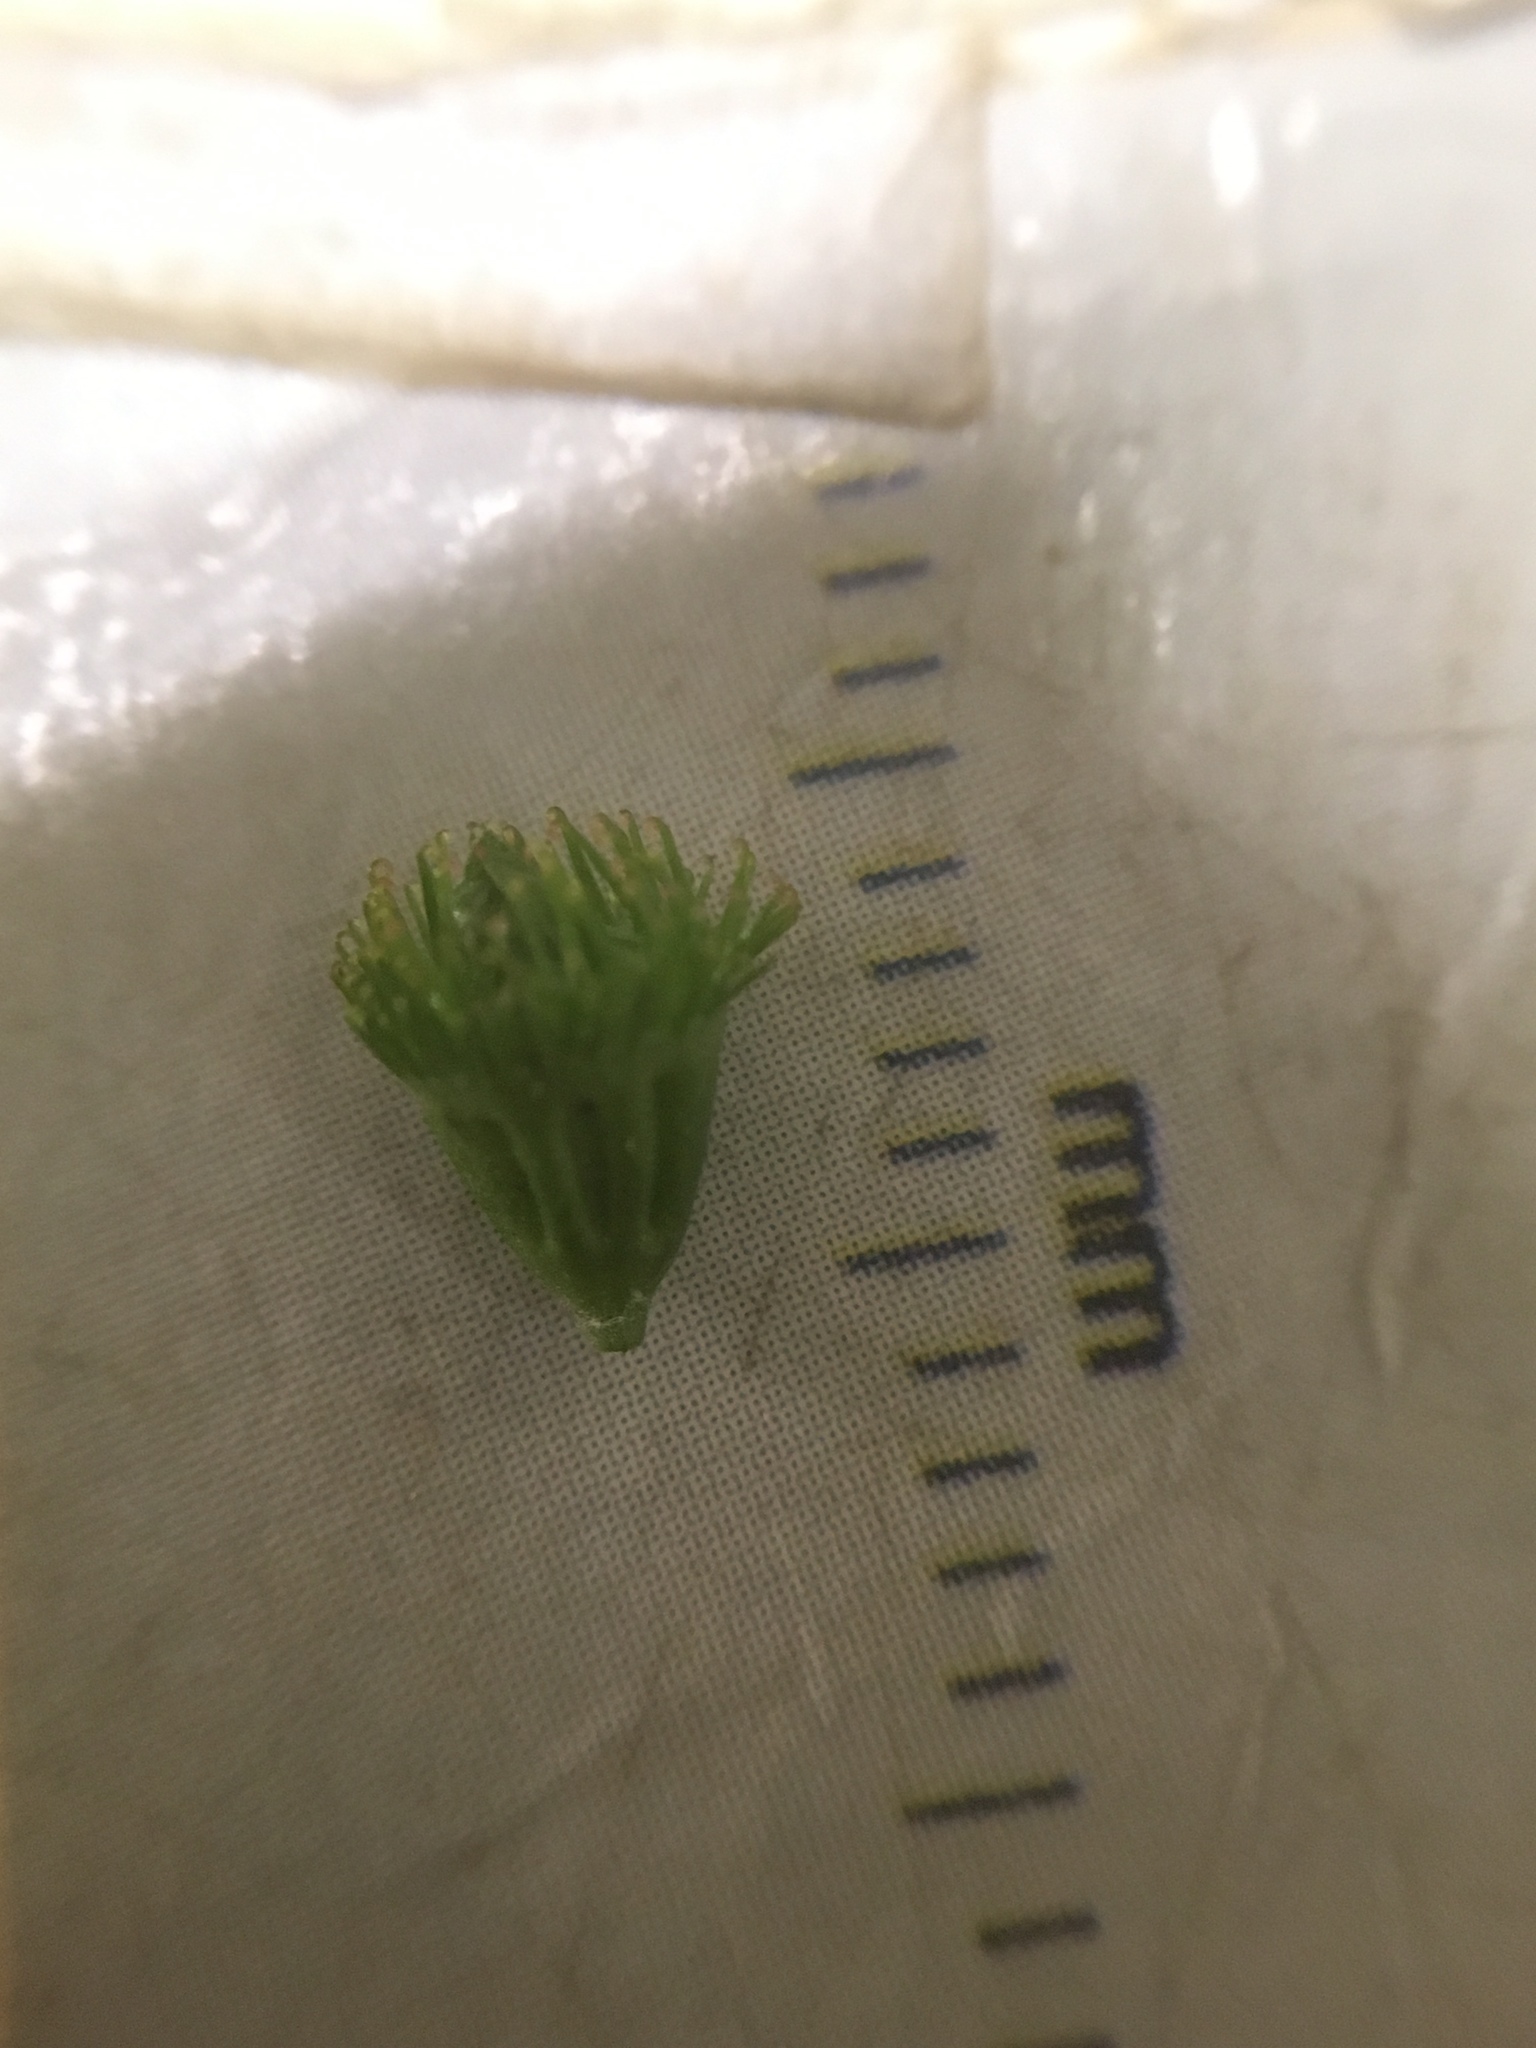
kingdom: Plantae
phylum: Tracheophyta
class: Magnoliopsida
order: Rosales
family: Rosaceae
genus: Agrimonia
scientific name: Agrimonia striata
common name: Britton's agrimony
